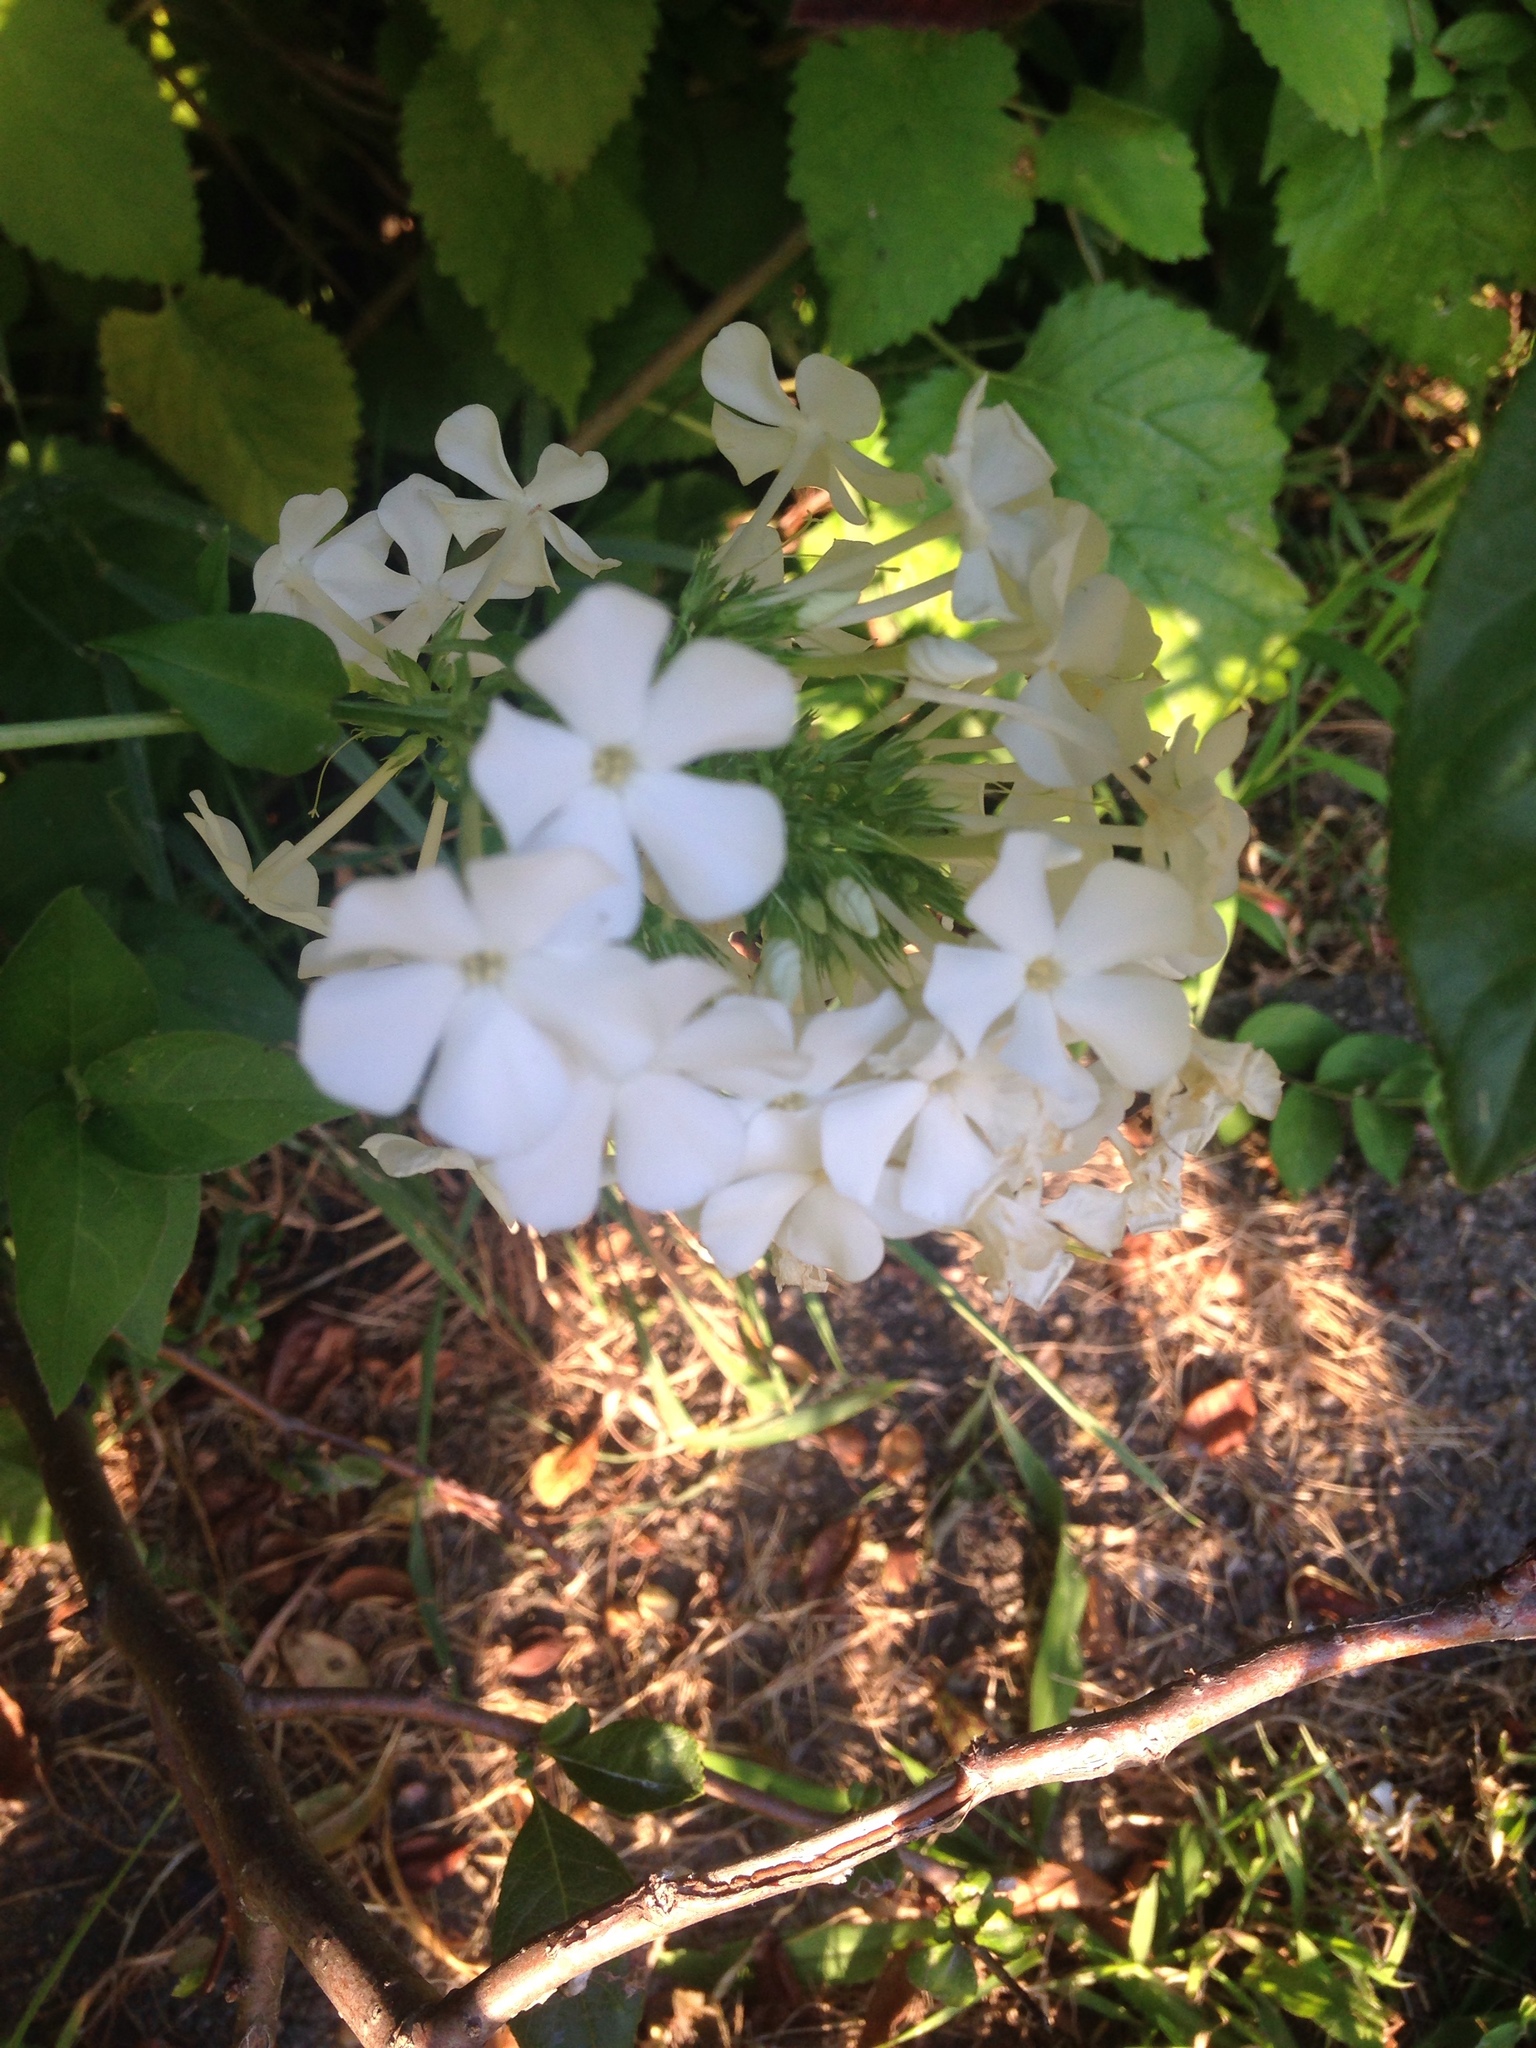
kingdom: Plantae
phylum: Tracheophyta
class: Magnoliopsida
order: Ericales
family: Polemoniaceae
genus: Phlox
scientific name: Phlox paniculata
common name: Fall phlox
